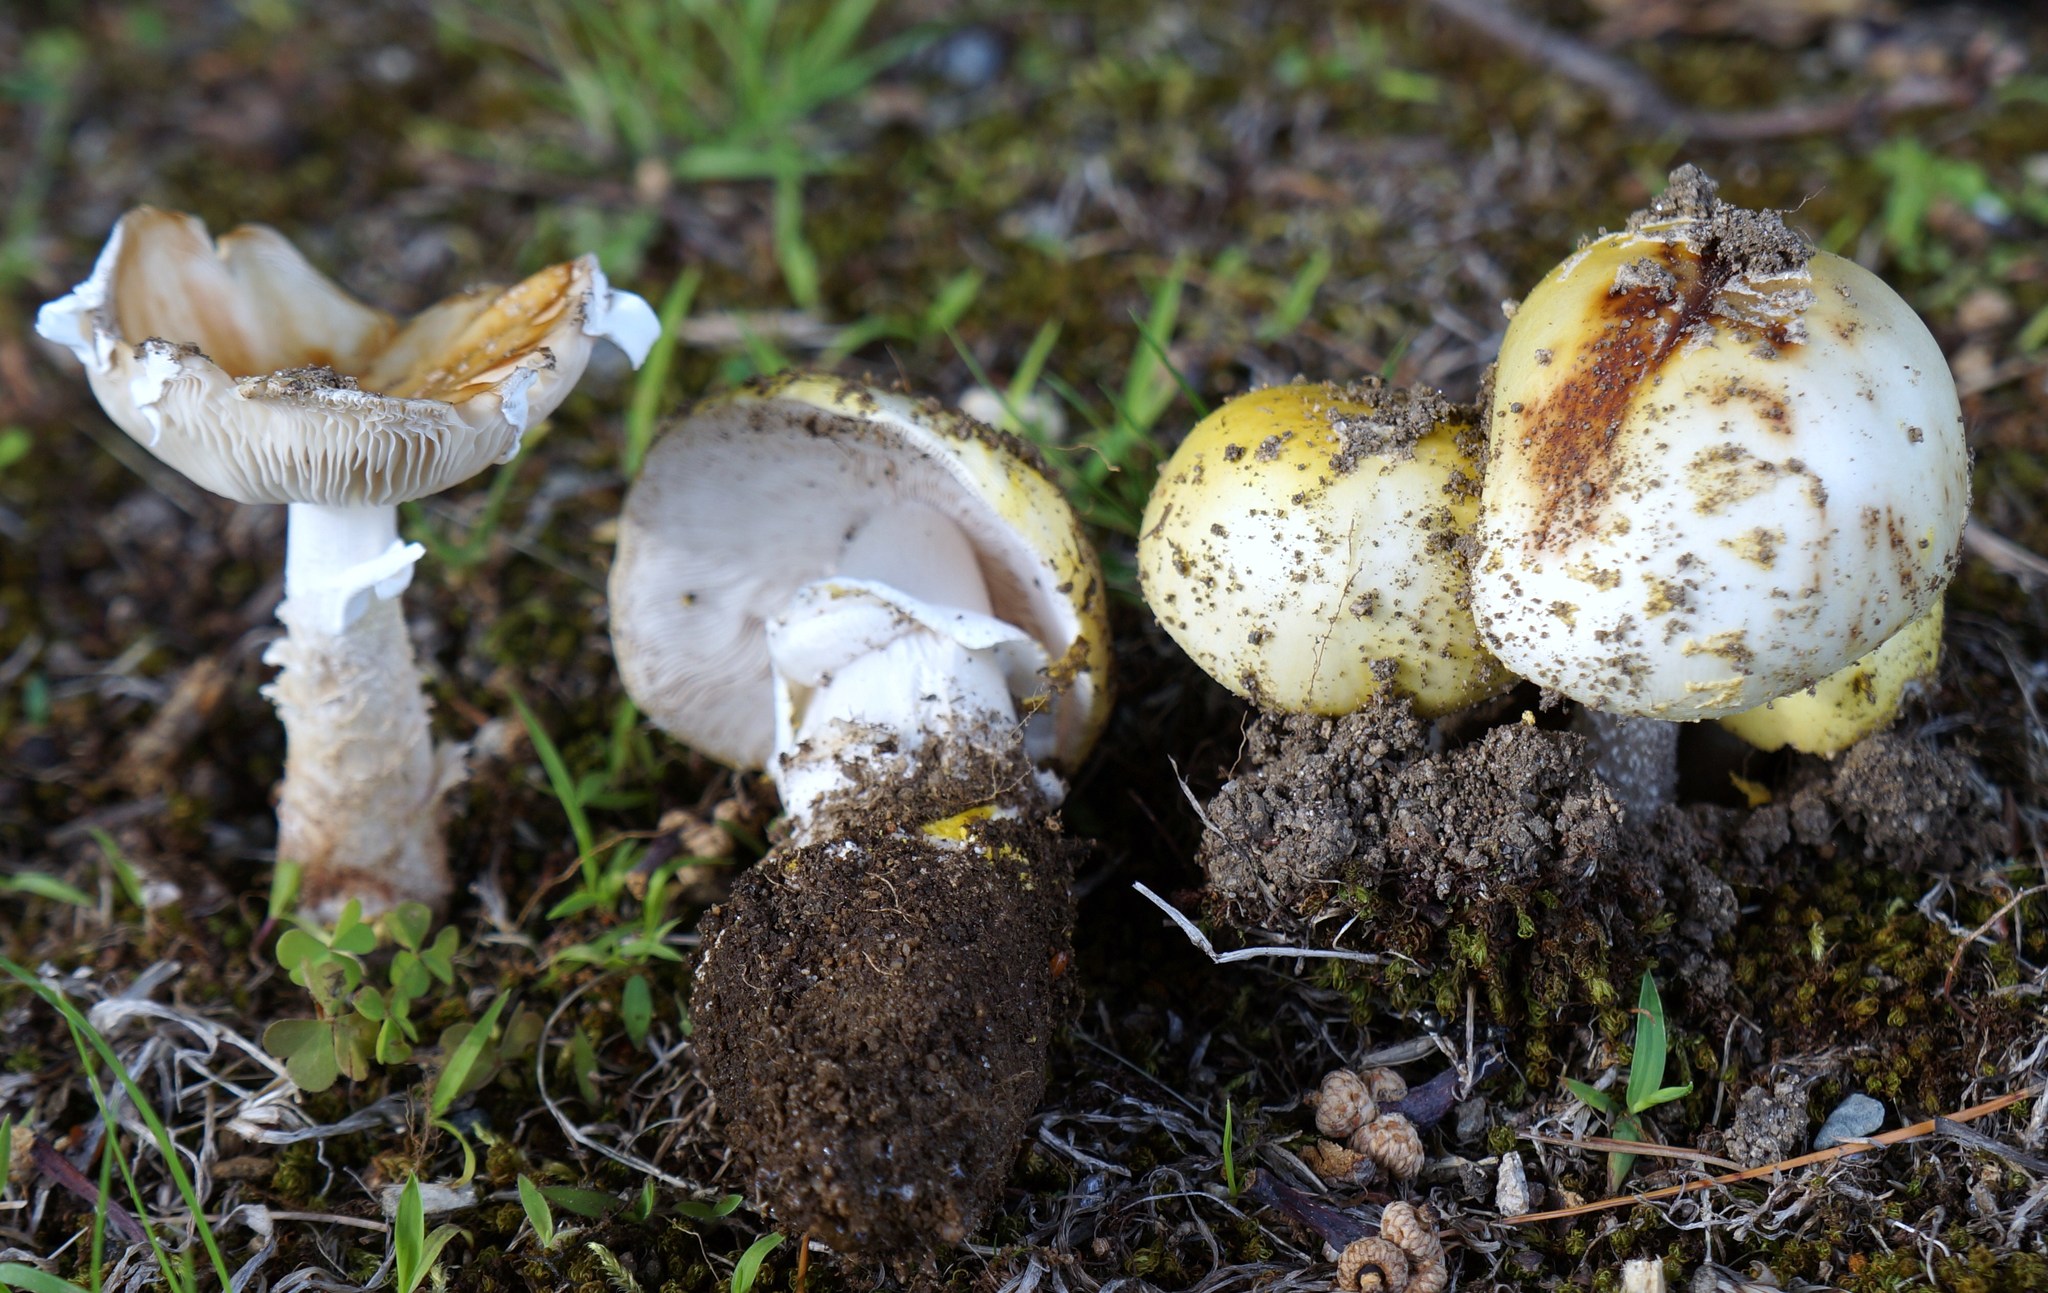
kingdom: Fungi
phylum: Basidiomycota
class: Agaricomycetes
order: Agaricales
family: Amanitaceae
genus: Amanita
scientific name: Amanita flavorubens
